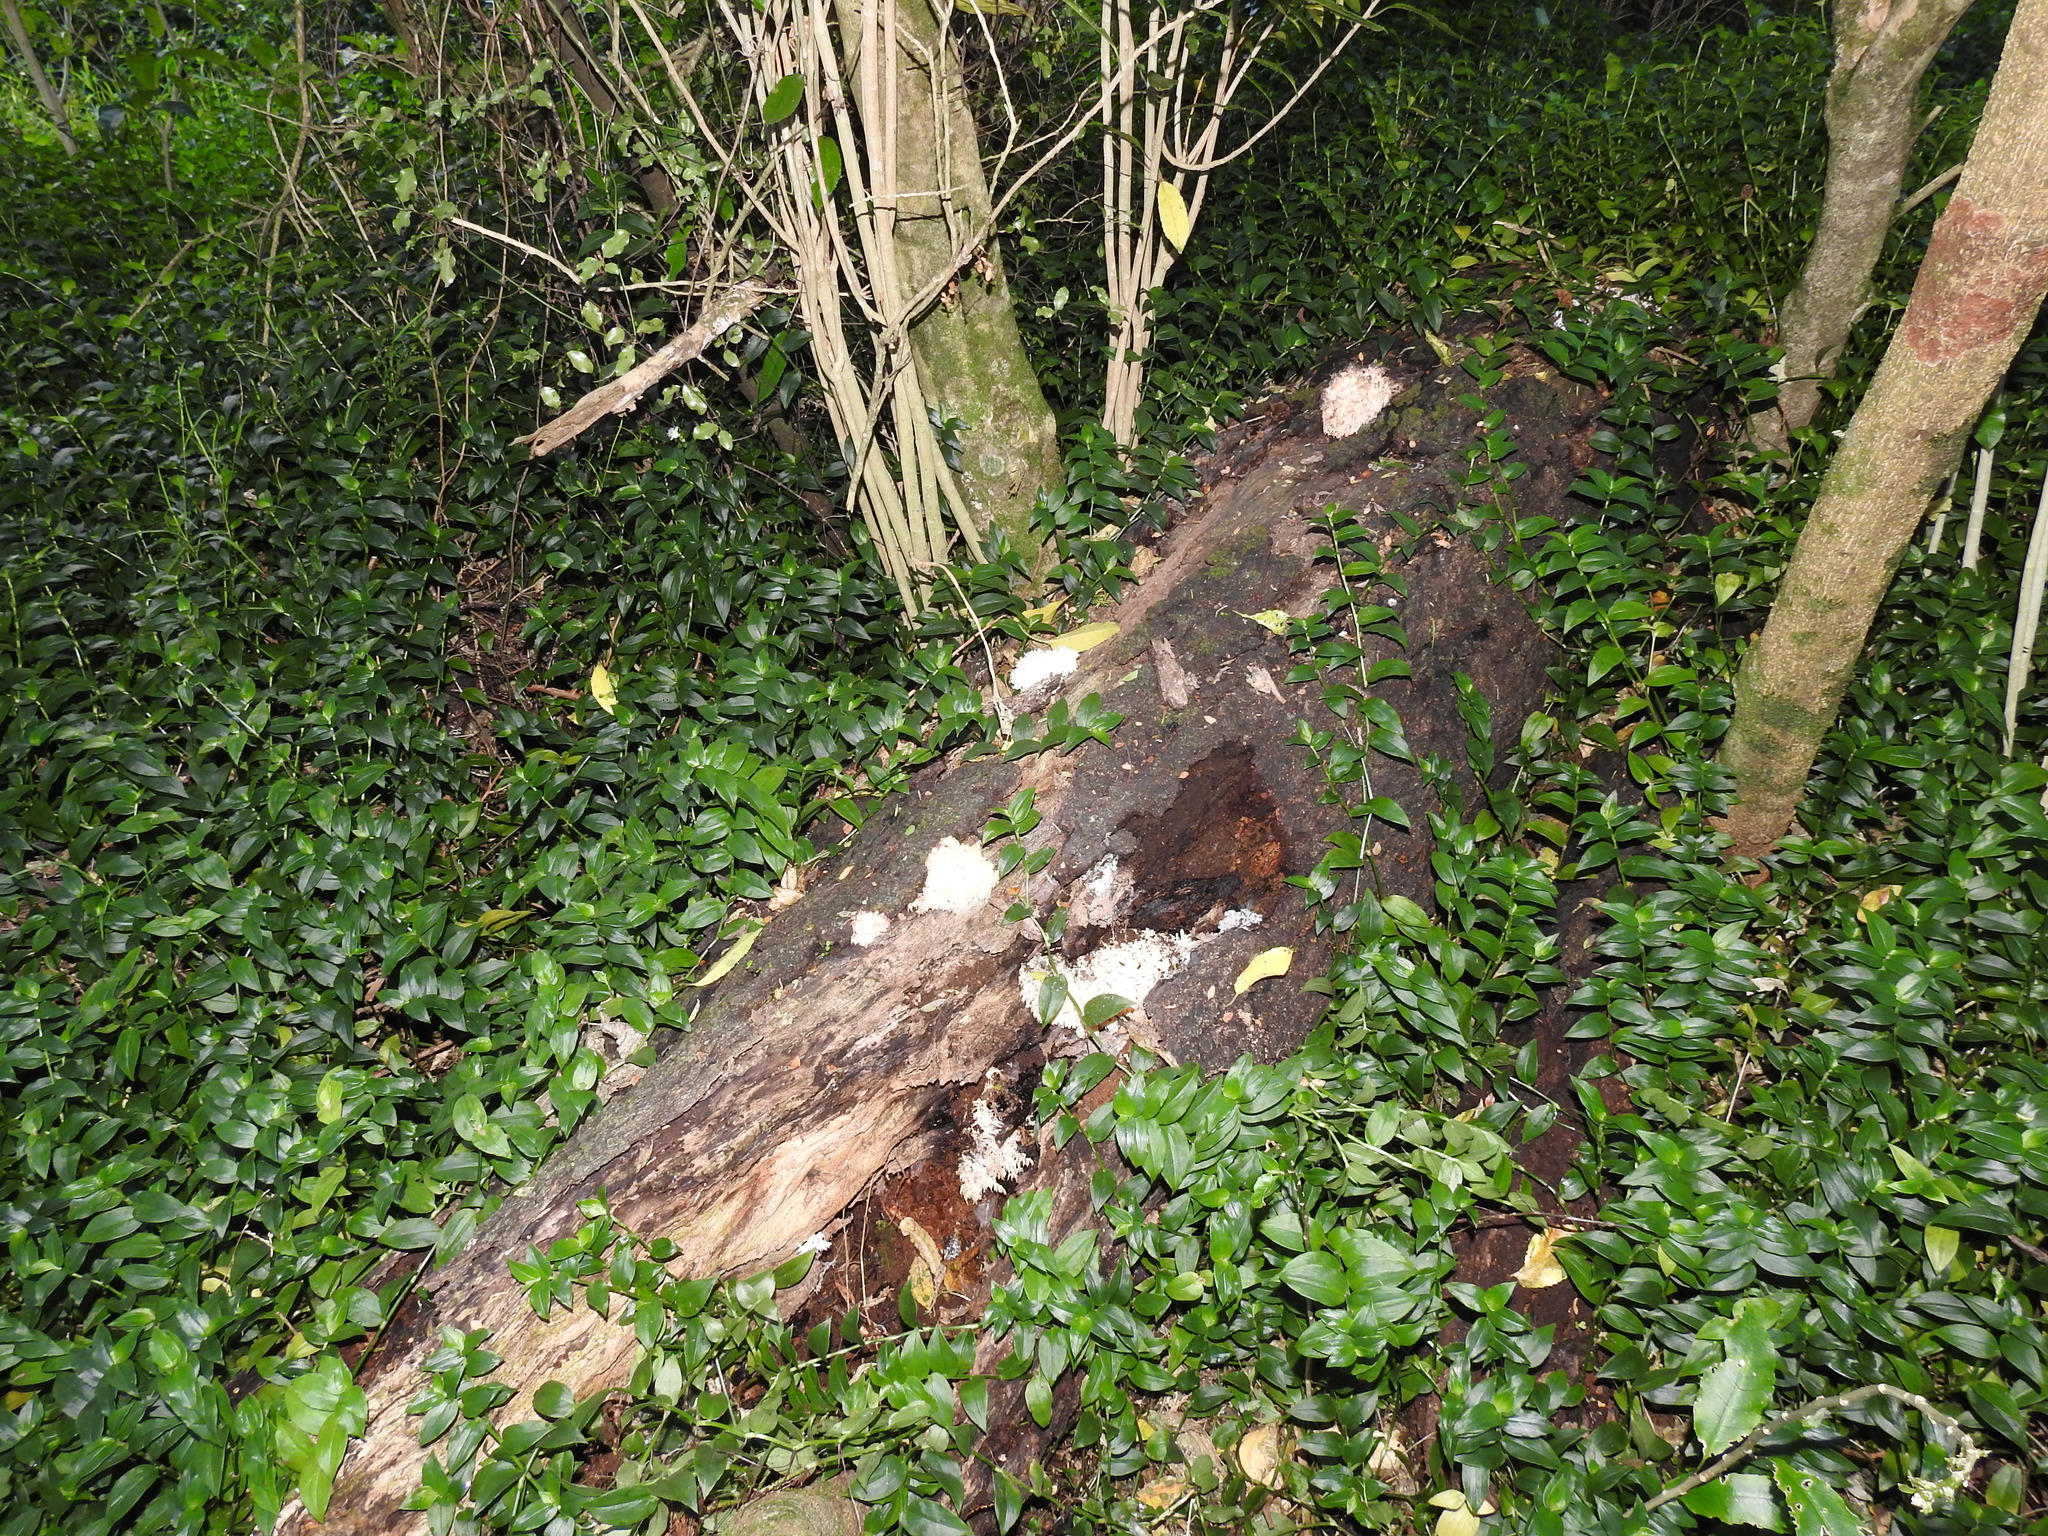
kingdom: Fungi
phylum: Basidiomycota
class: Agaricomycetes
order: Russulales
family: Hericiaceae
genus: Hericium
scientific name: Hericium novae-zealandiae
